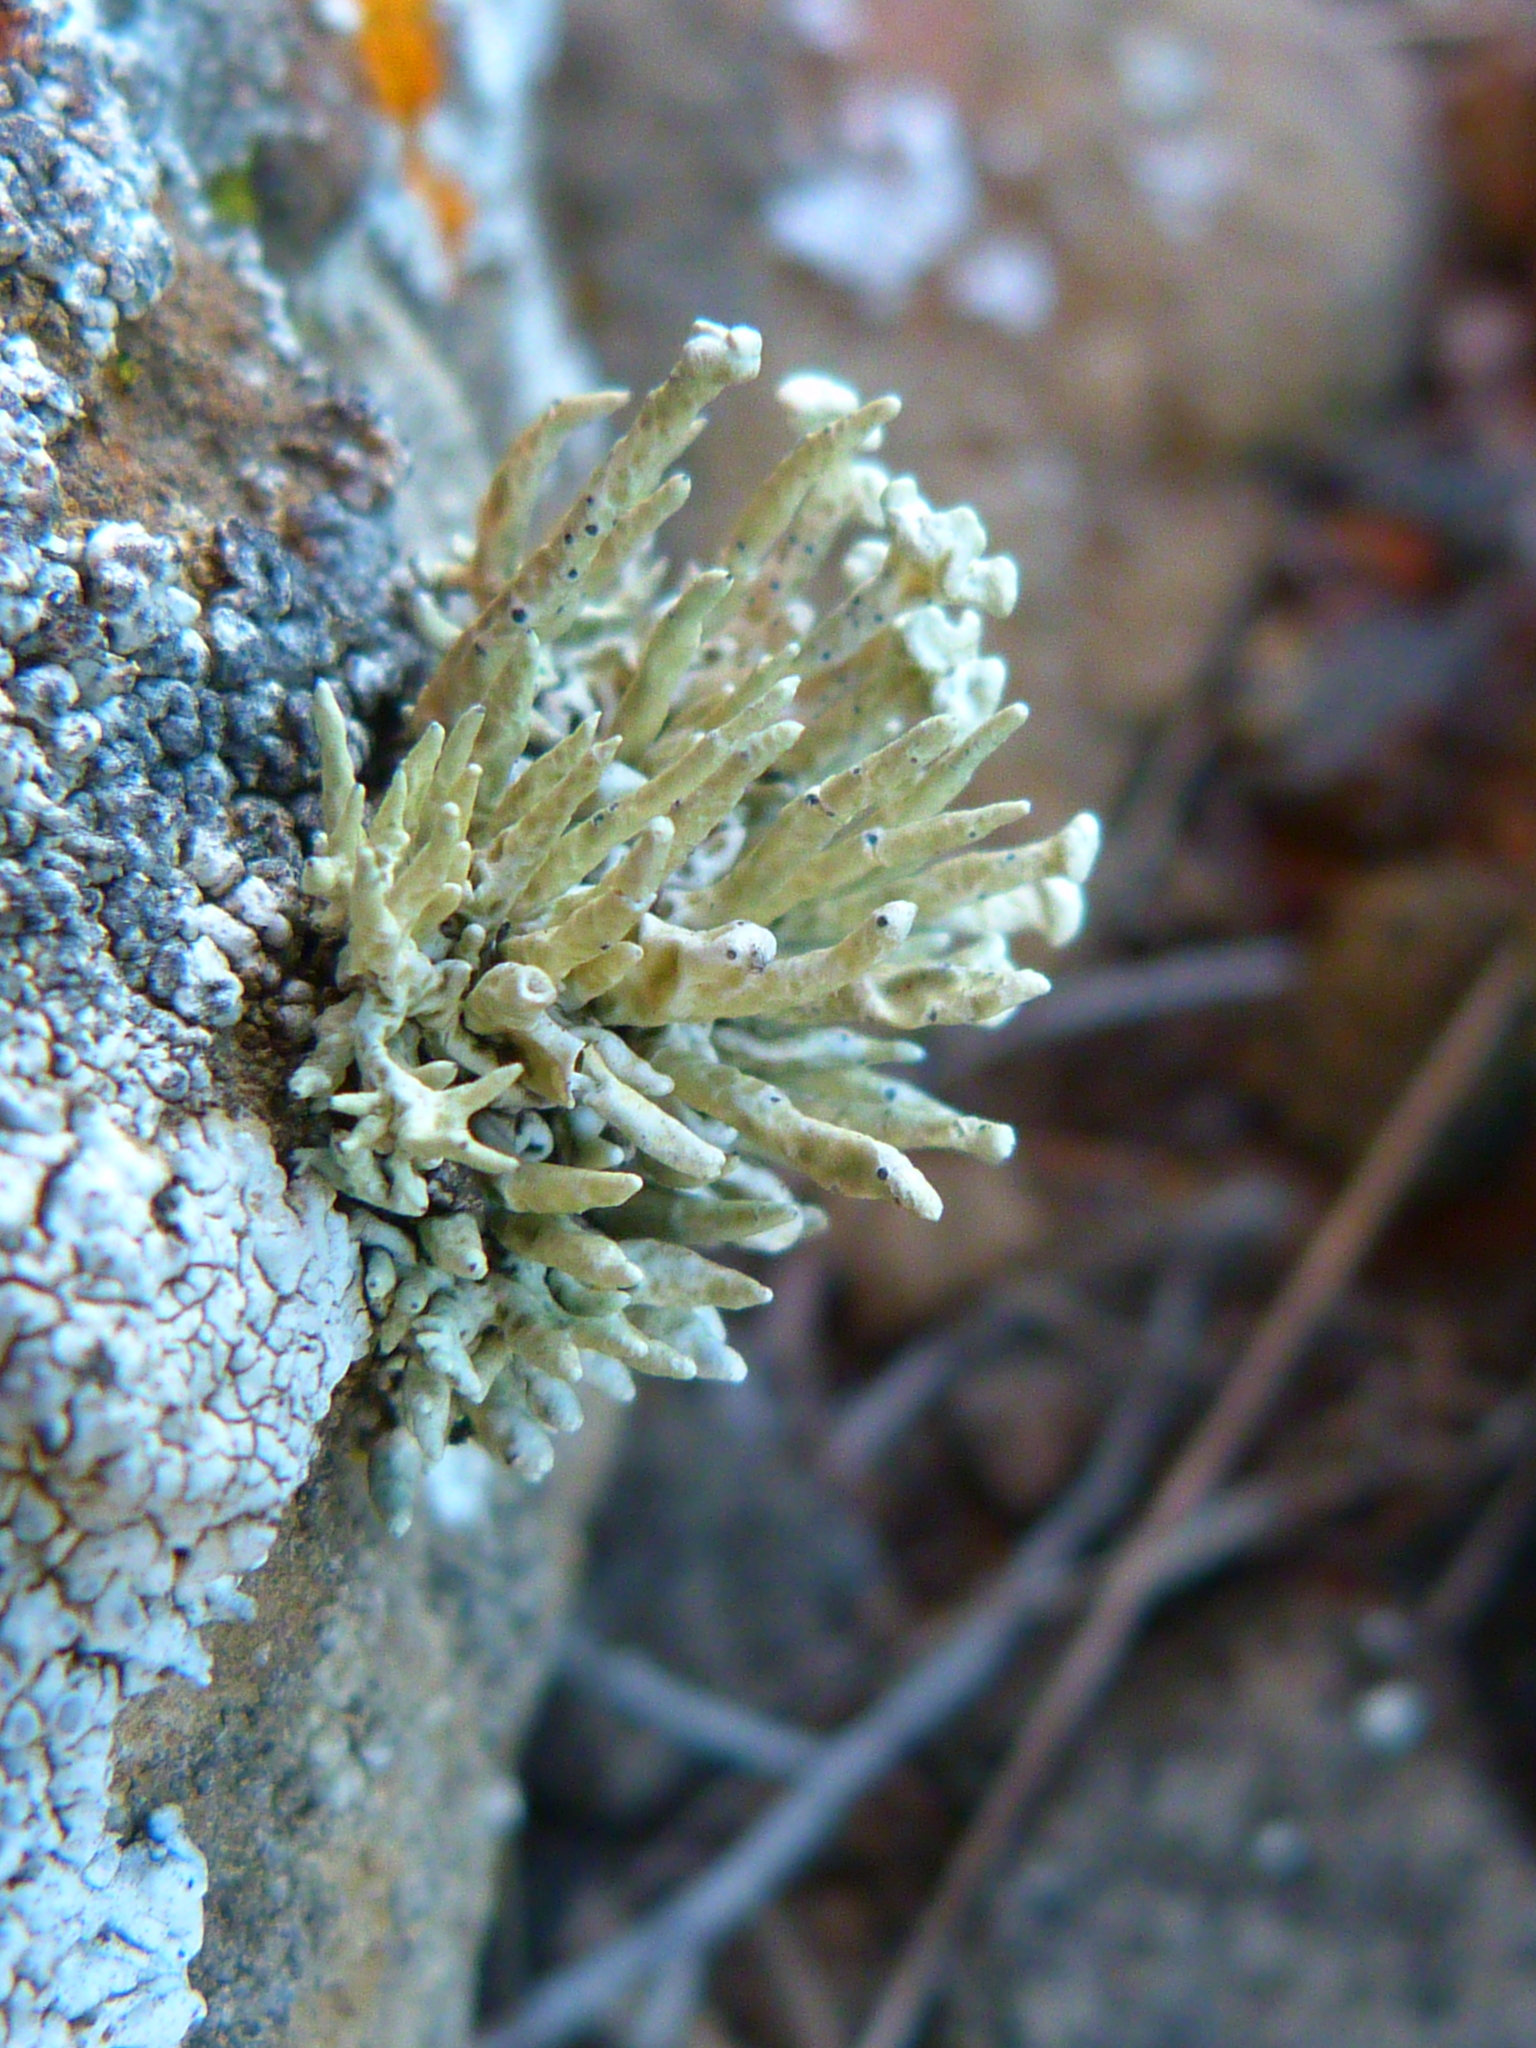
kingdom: Fungi
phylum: Ascomycota
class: Lecanoromycetes
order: Lecanorales
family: Ramalinaceae
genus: Niebla
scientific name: Niebla combeoides
